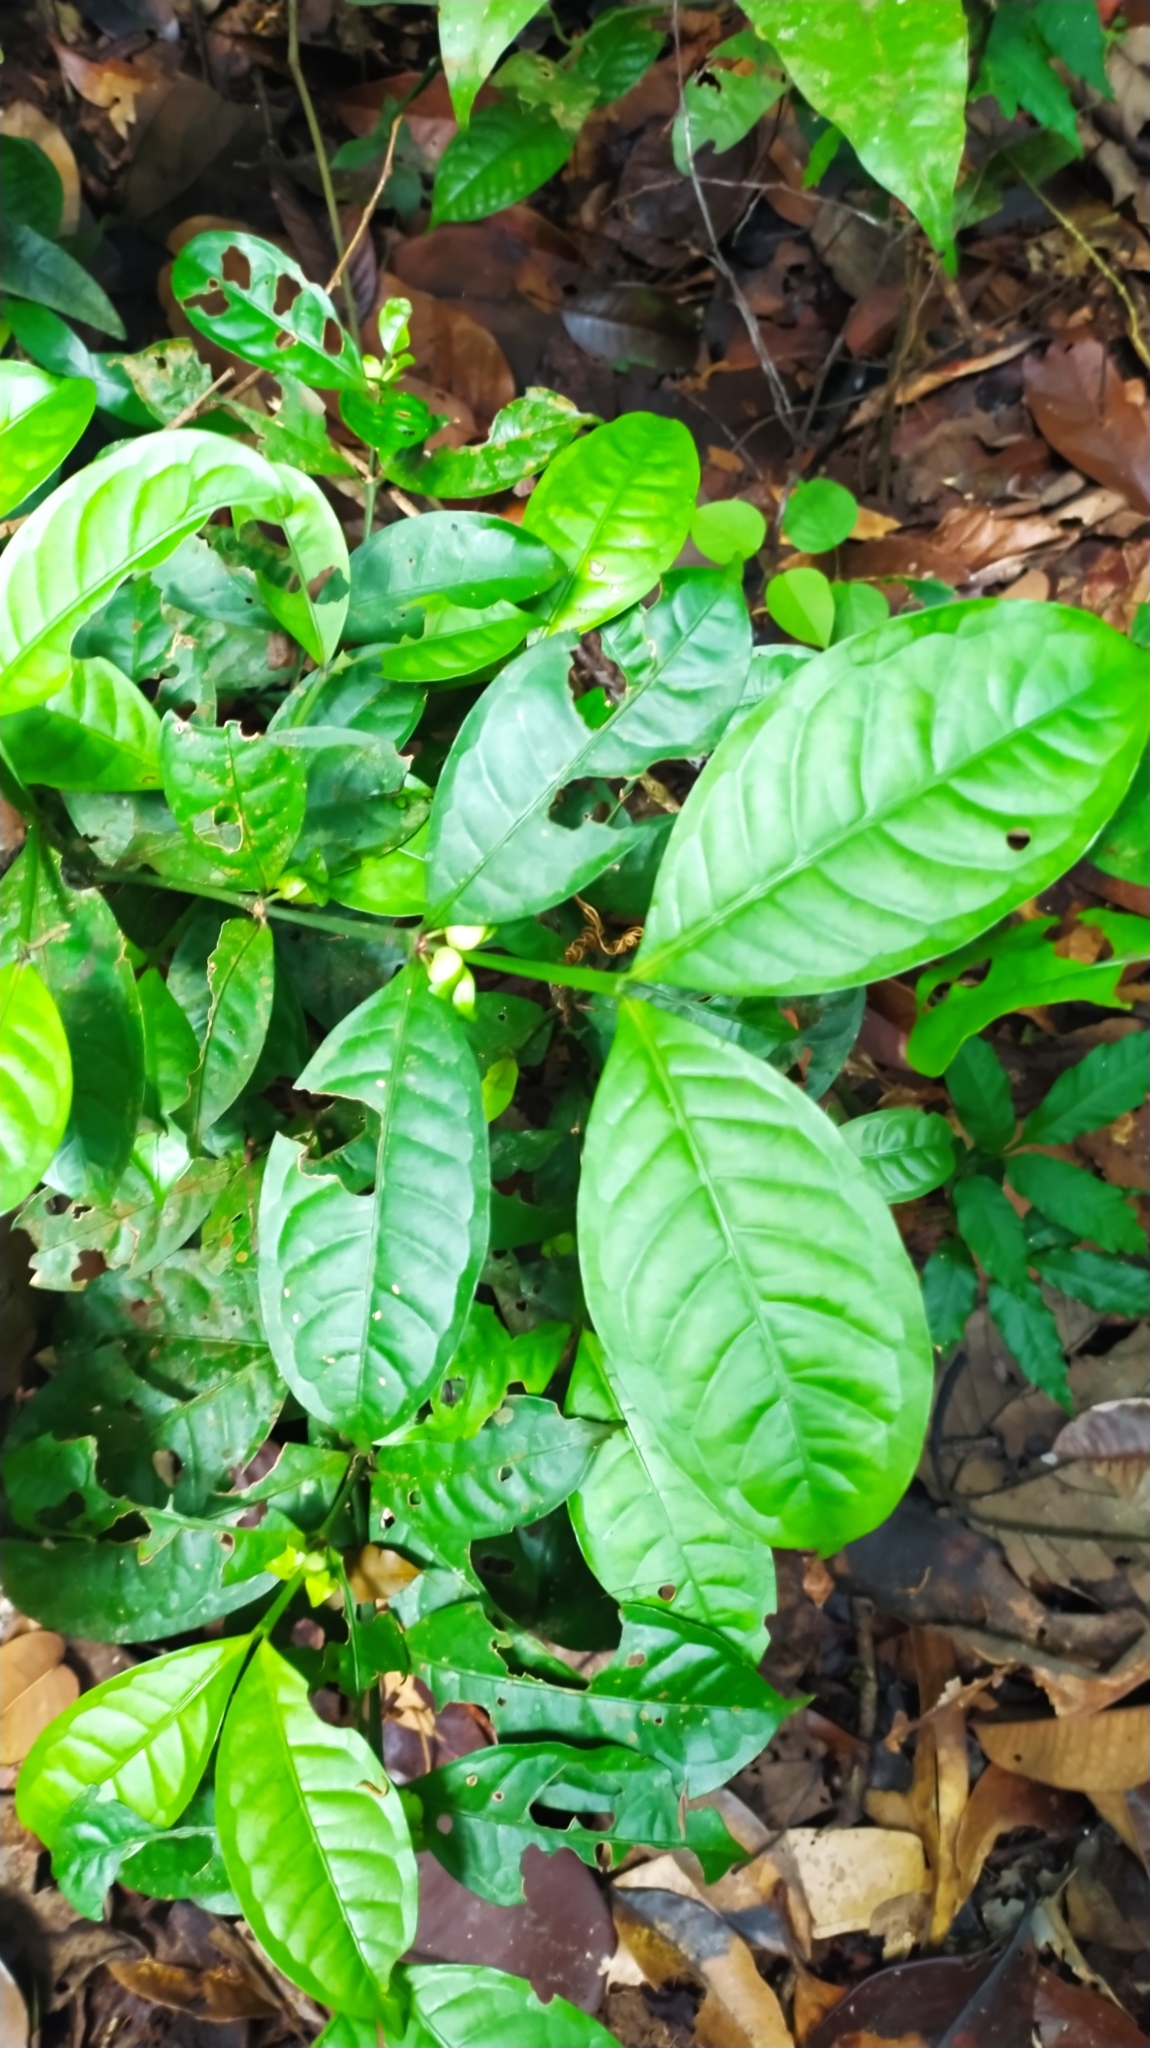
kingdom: Plantae
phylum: Tracheophyta
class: Magnoliopsida
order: Gentianales
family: Rubiaceae
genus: Faramea
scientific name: Faramea guianensis
